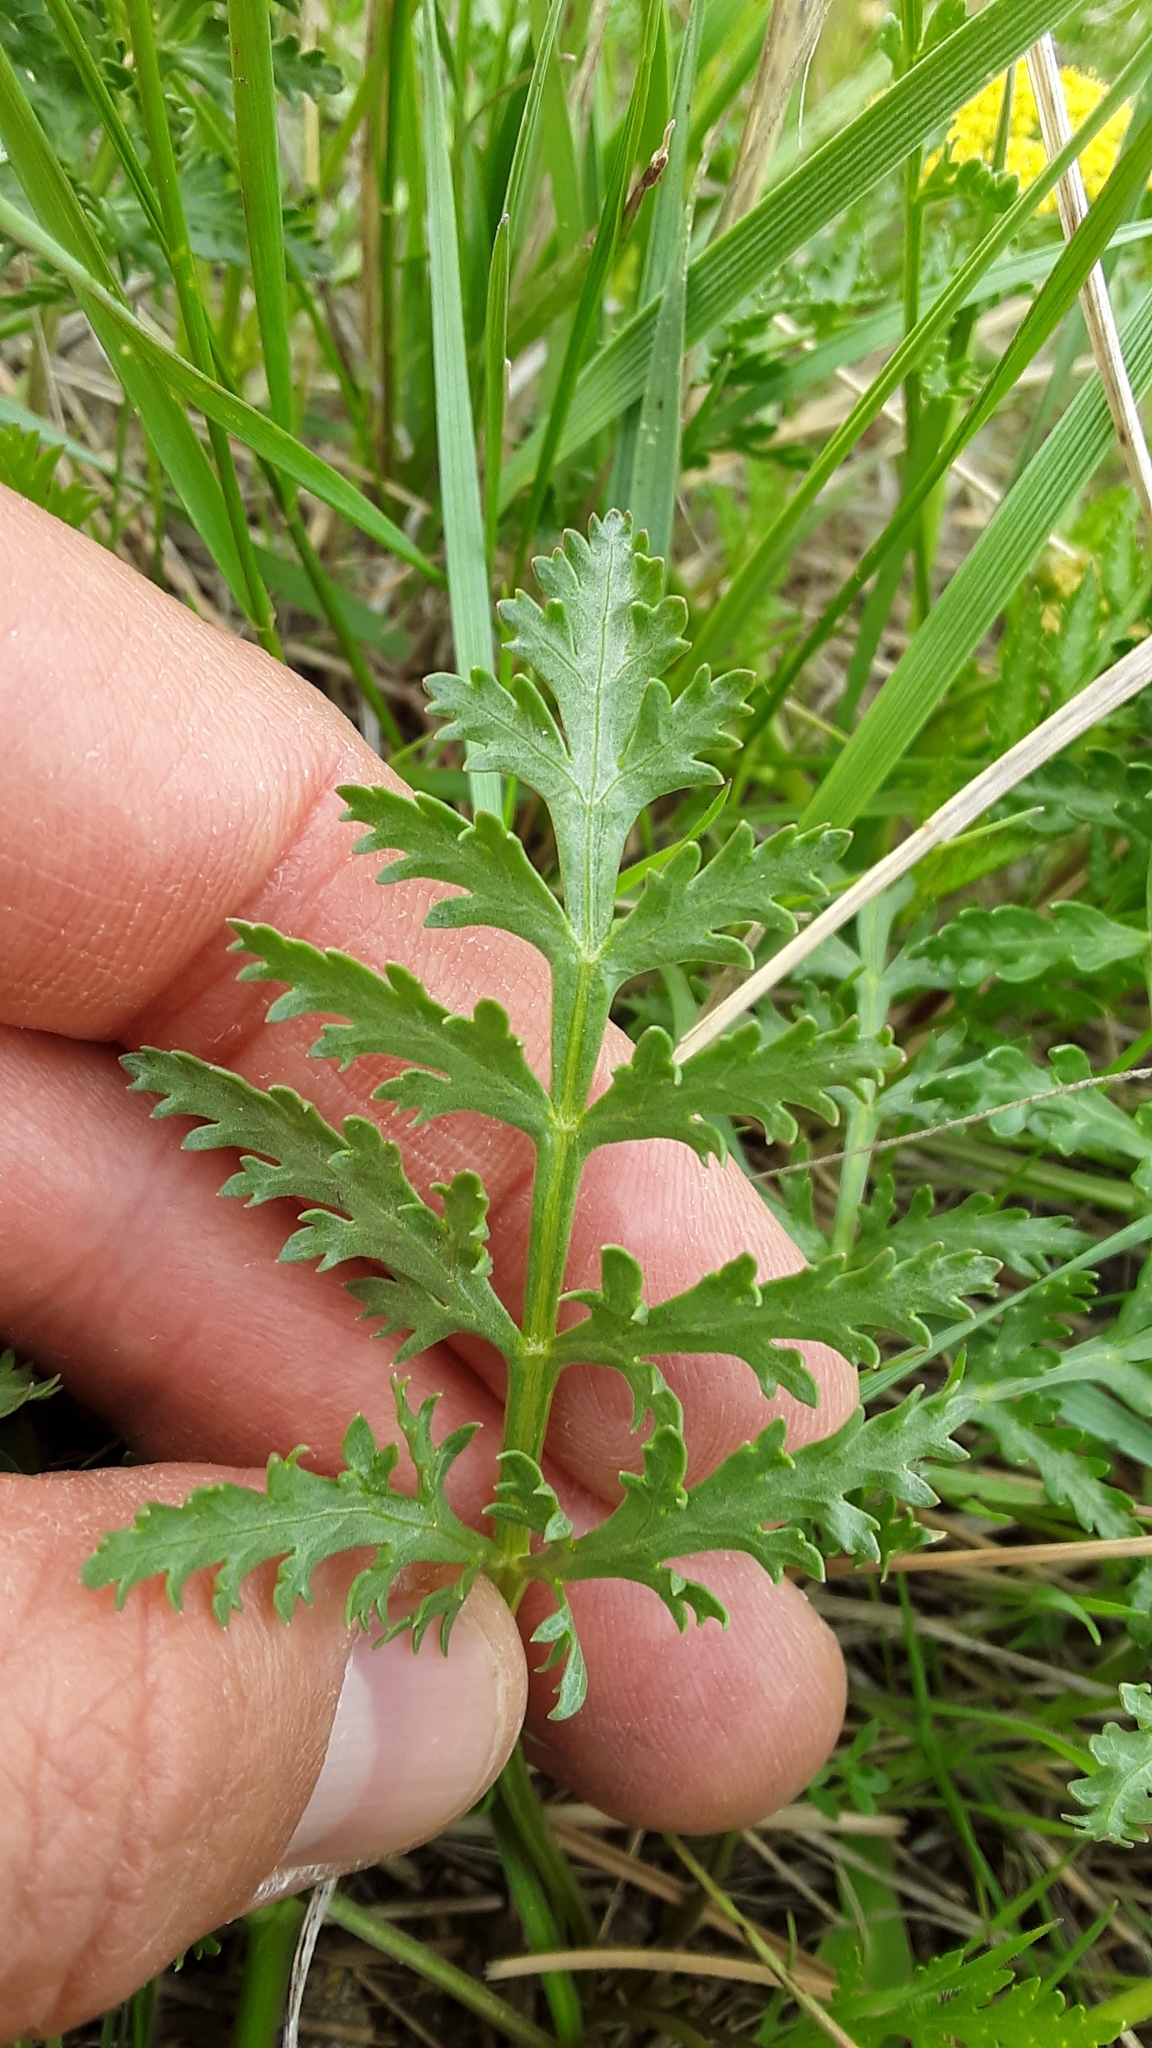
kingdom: Plantae
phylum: Tracheophyta
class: Magnoliopsida
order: Apiales
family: Apiaceae
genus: Musineon
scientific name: Musineon divaricatum
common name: Plains musineon
